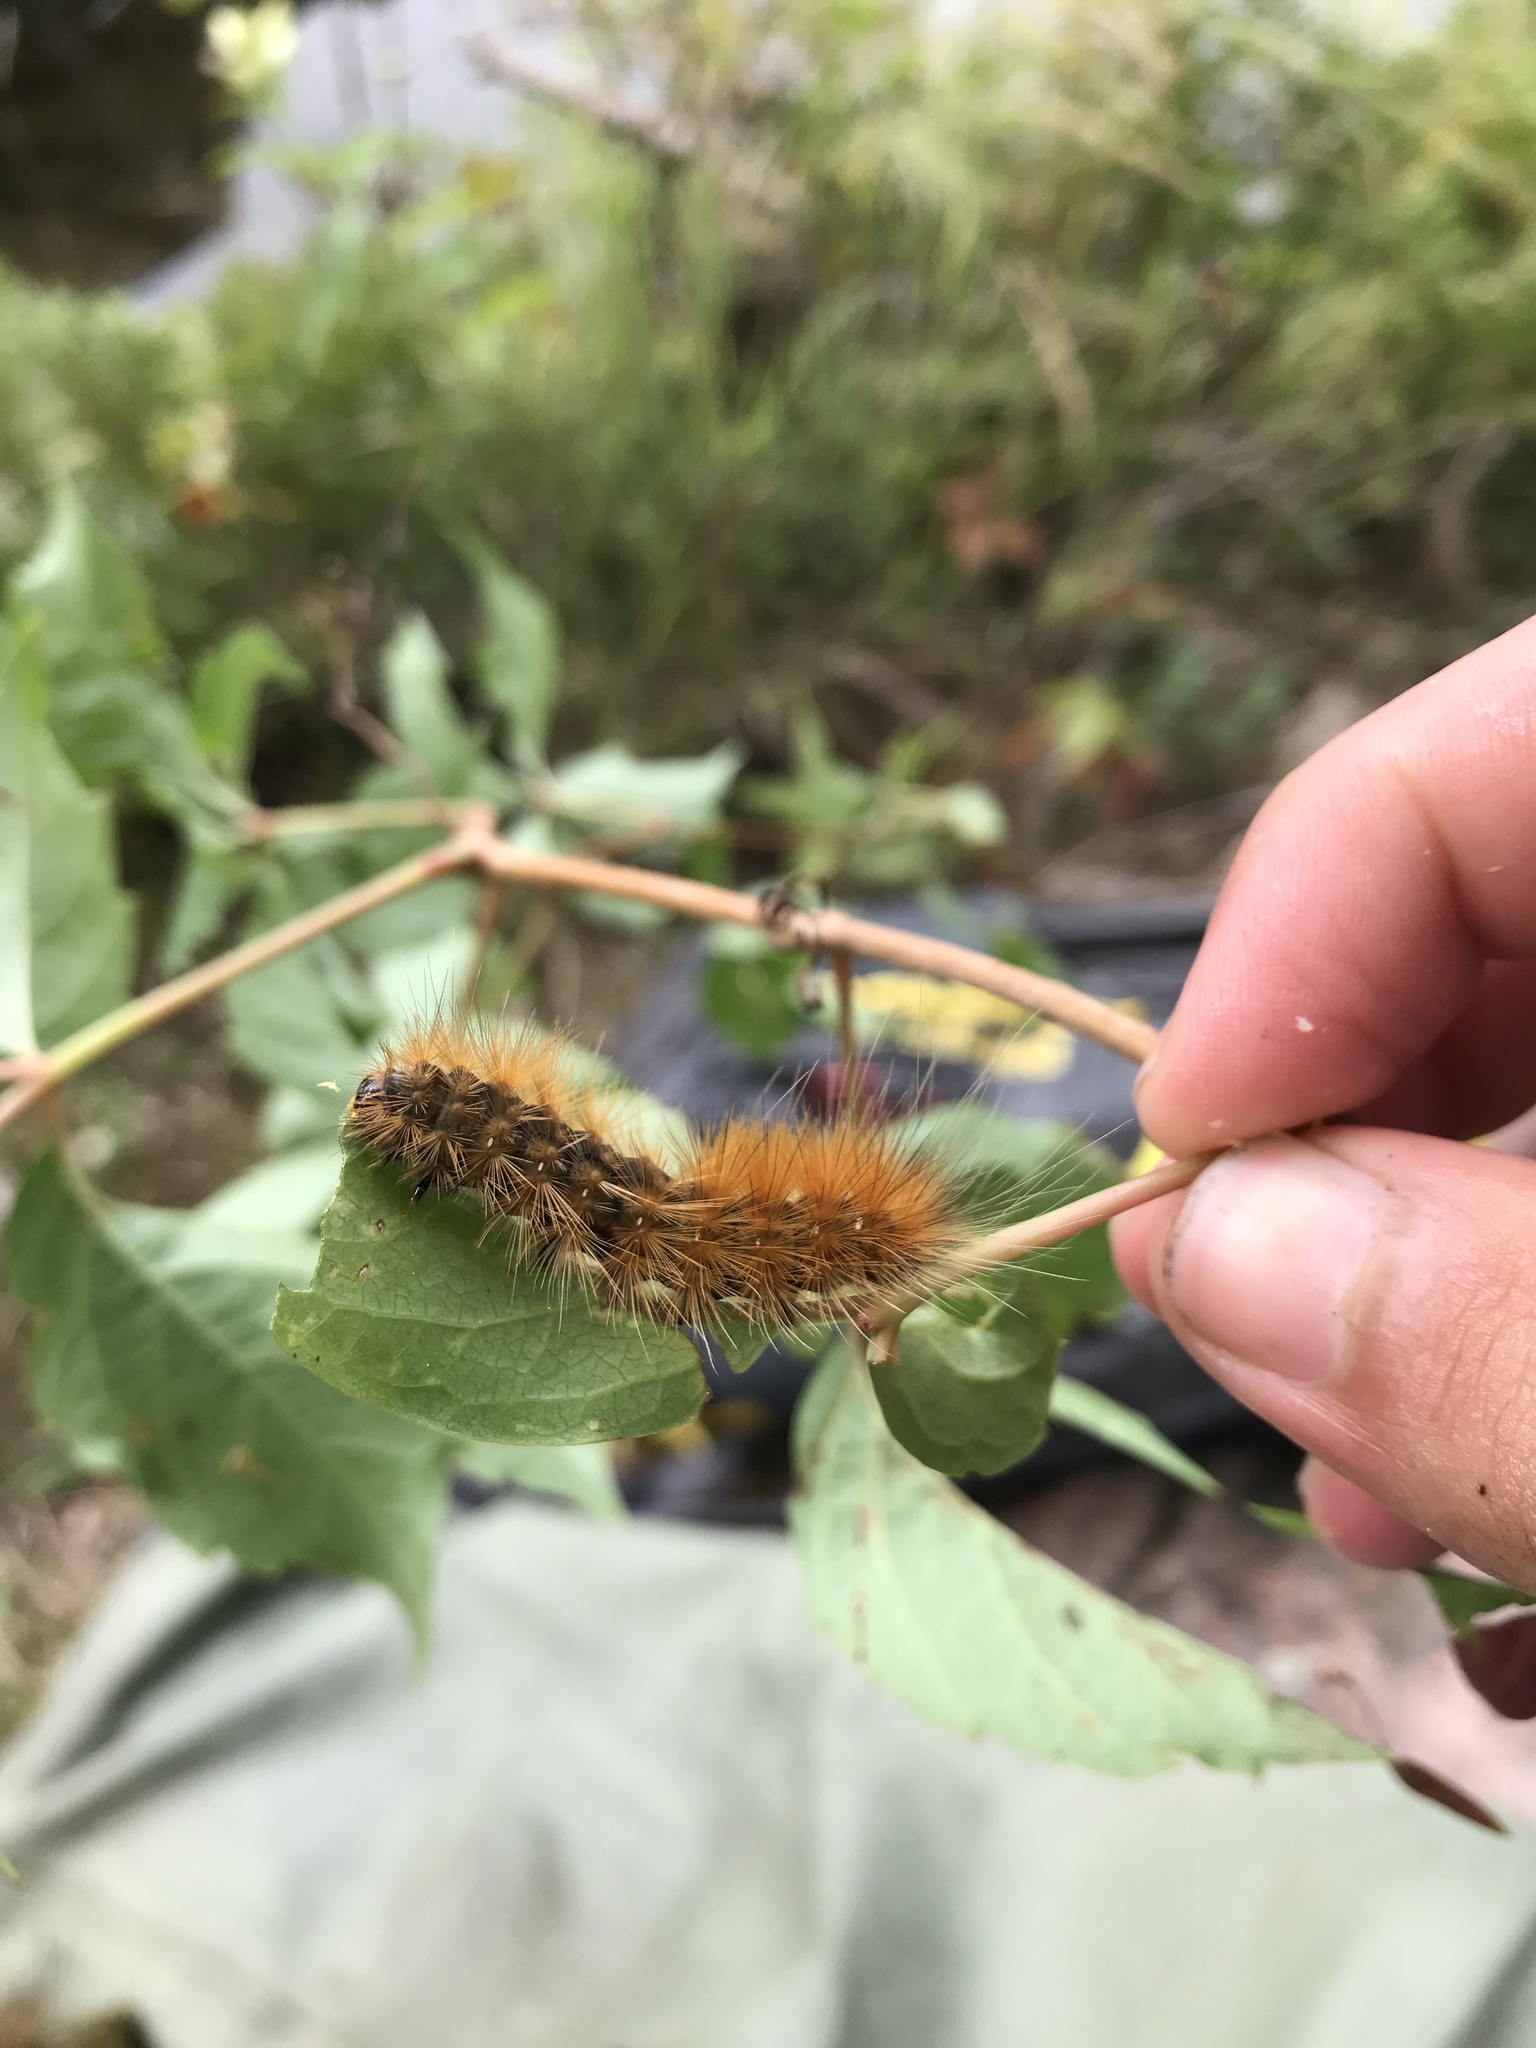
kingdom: Animalia
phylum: Arthropoda
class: Insecta
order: Lepidoptera
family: Erebidae
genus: Spilosoma
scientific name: Spilosoma virginica
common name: Virginia tiger moth
